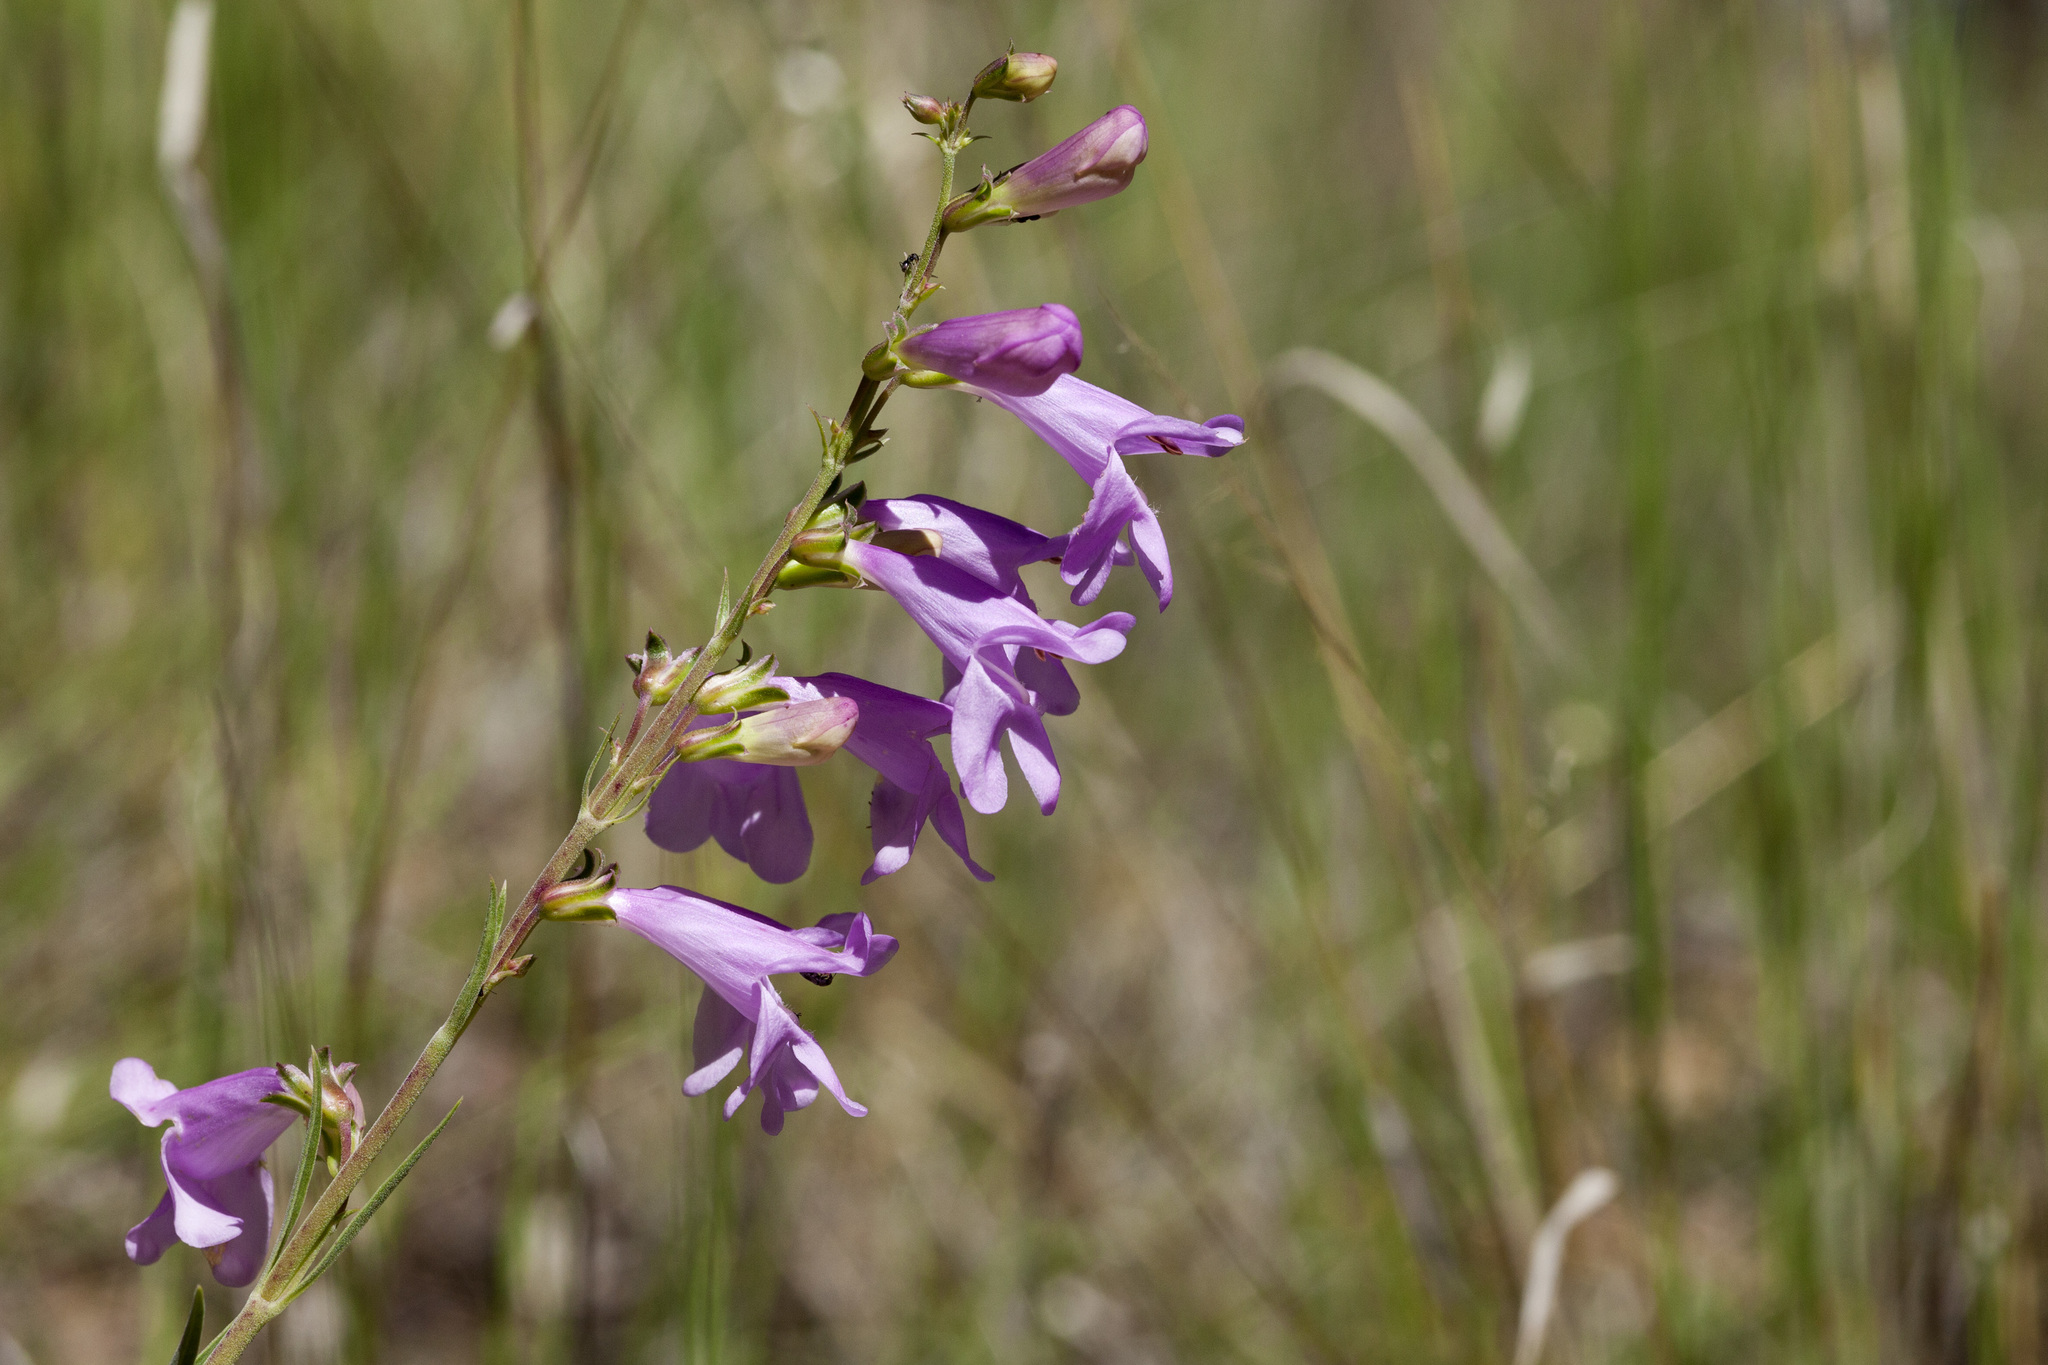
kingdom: Plantae
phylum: Tracheophyta
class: Magnoliopsida
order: Lamiales
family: Plantaginaceae
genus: Penstemon
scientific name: Penstemon virgatus
